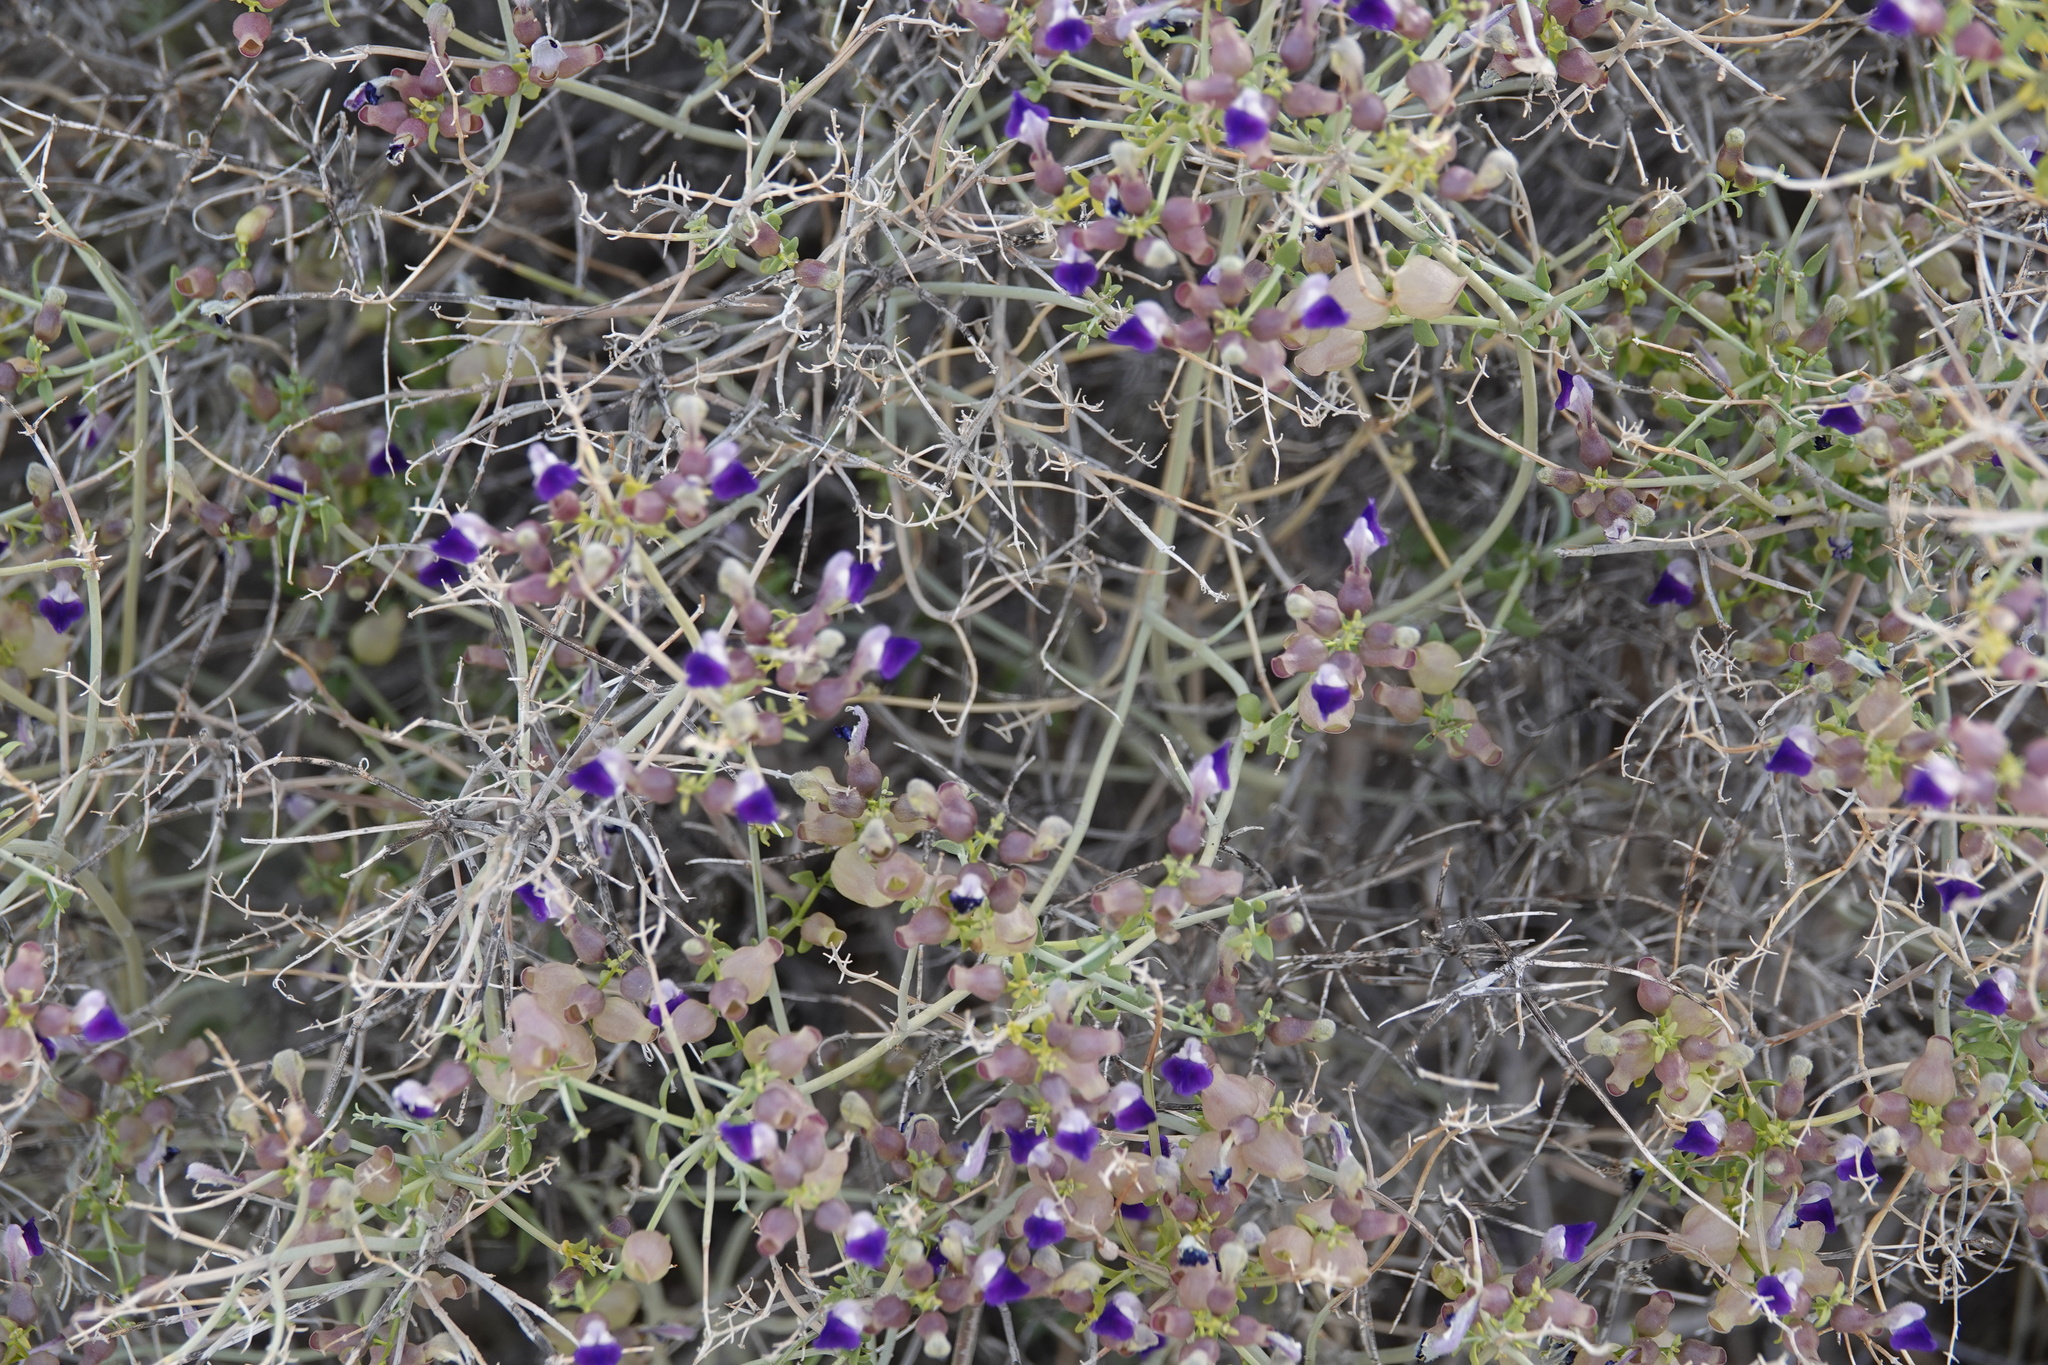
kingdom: Plantae
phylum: Tracheophyta
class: Magnoliopsida
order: Lamiales
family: Lamiaceae
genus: Scutellaria
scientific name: Scutellaria mexicana
